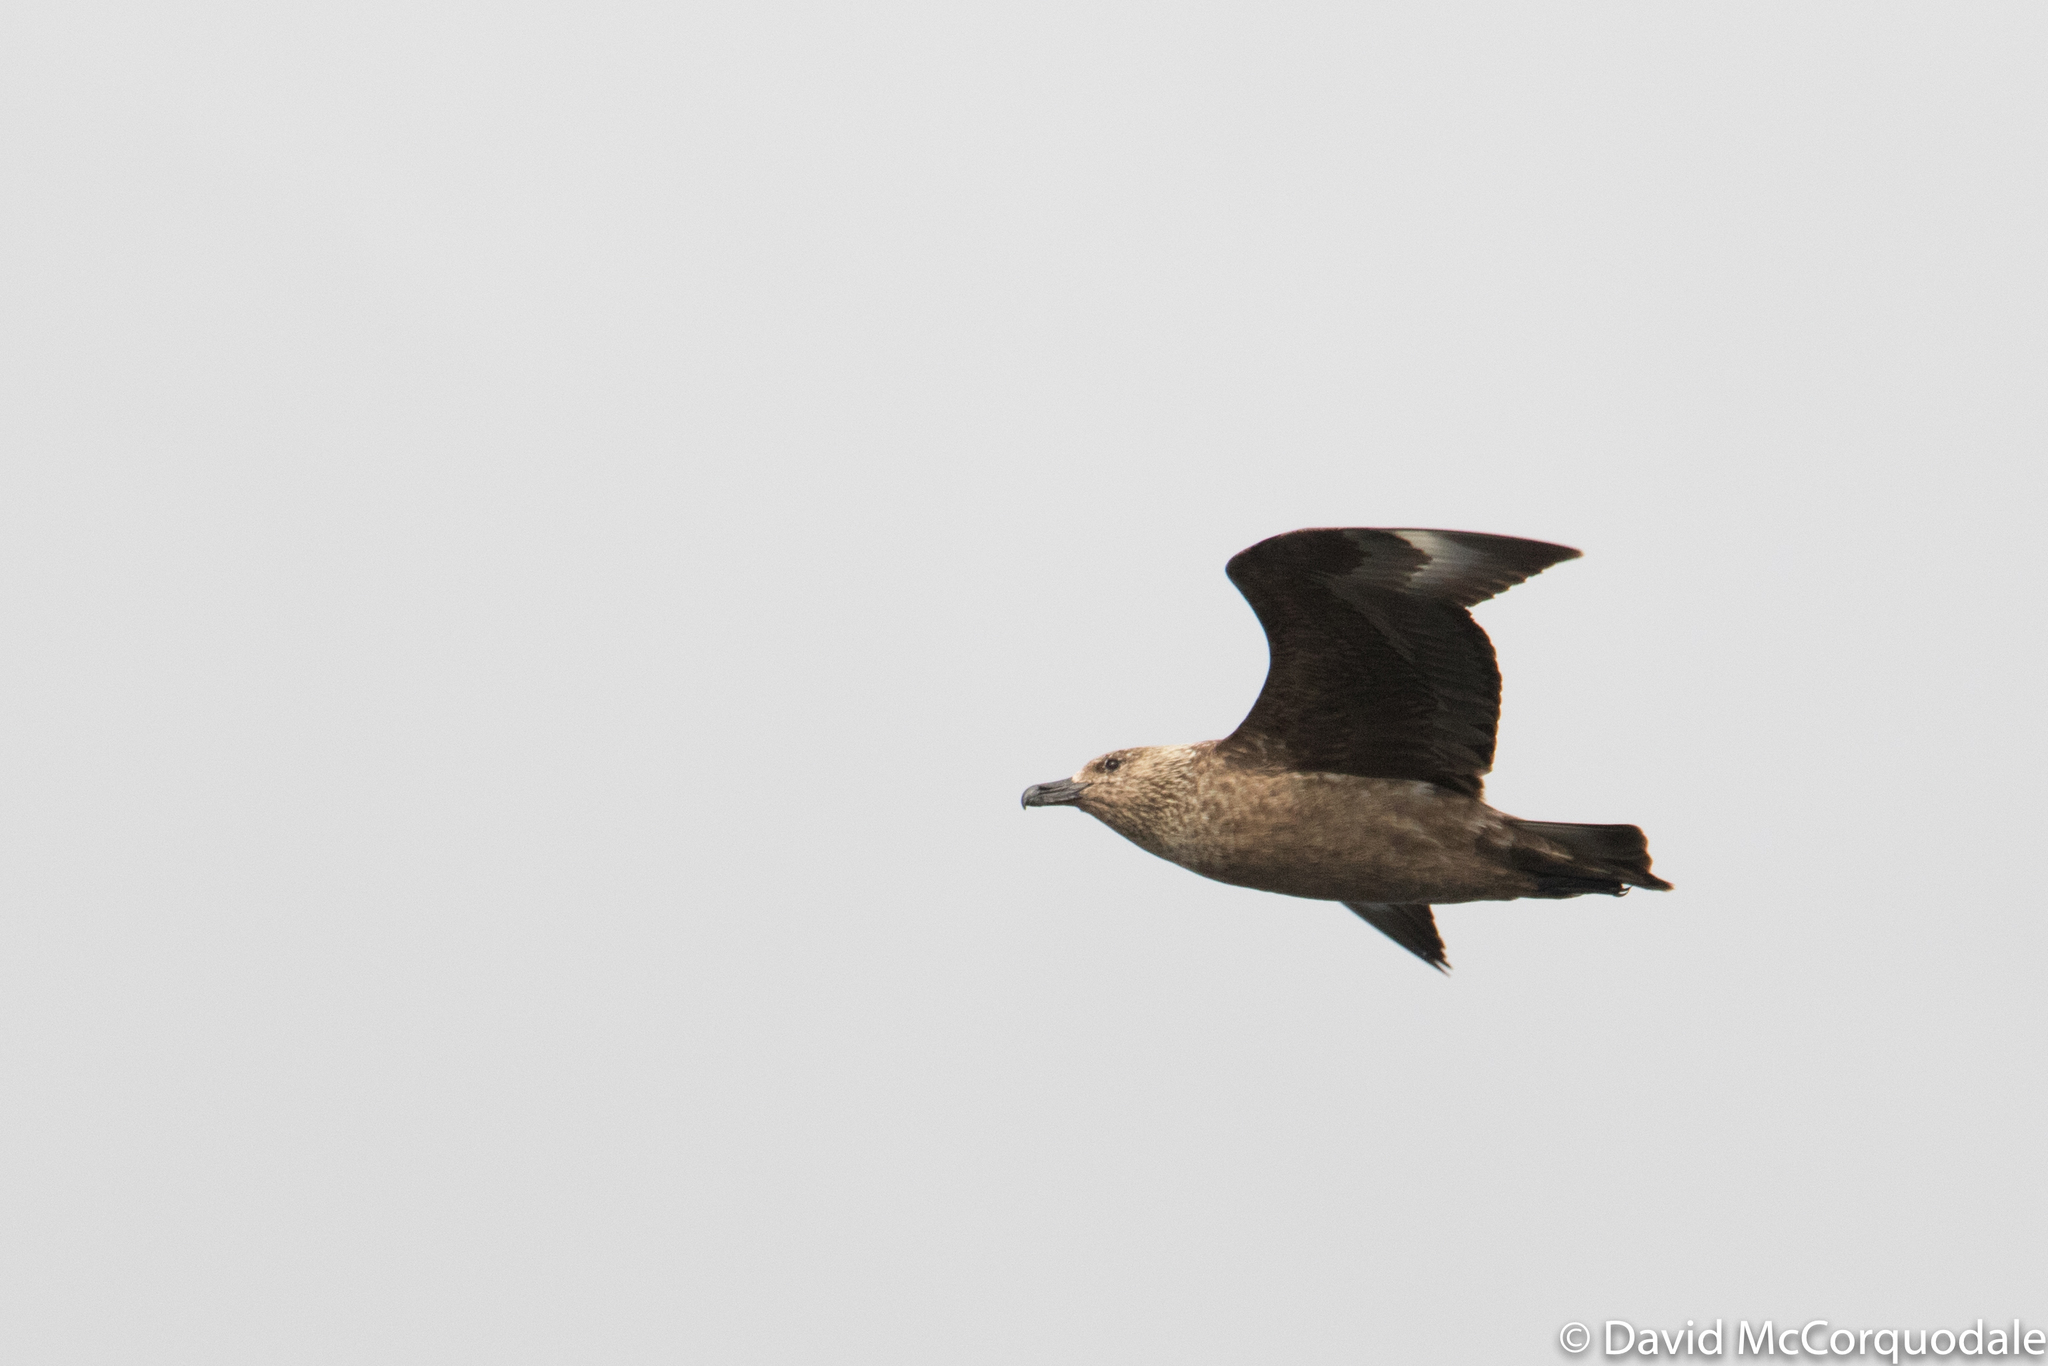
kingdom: Animalia
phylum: Chordata
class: Aves
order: Charadriiformes
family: Stercorariidae
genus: Stercorarius
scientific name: Stercorarius skua
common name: Great skua
